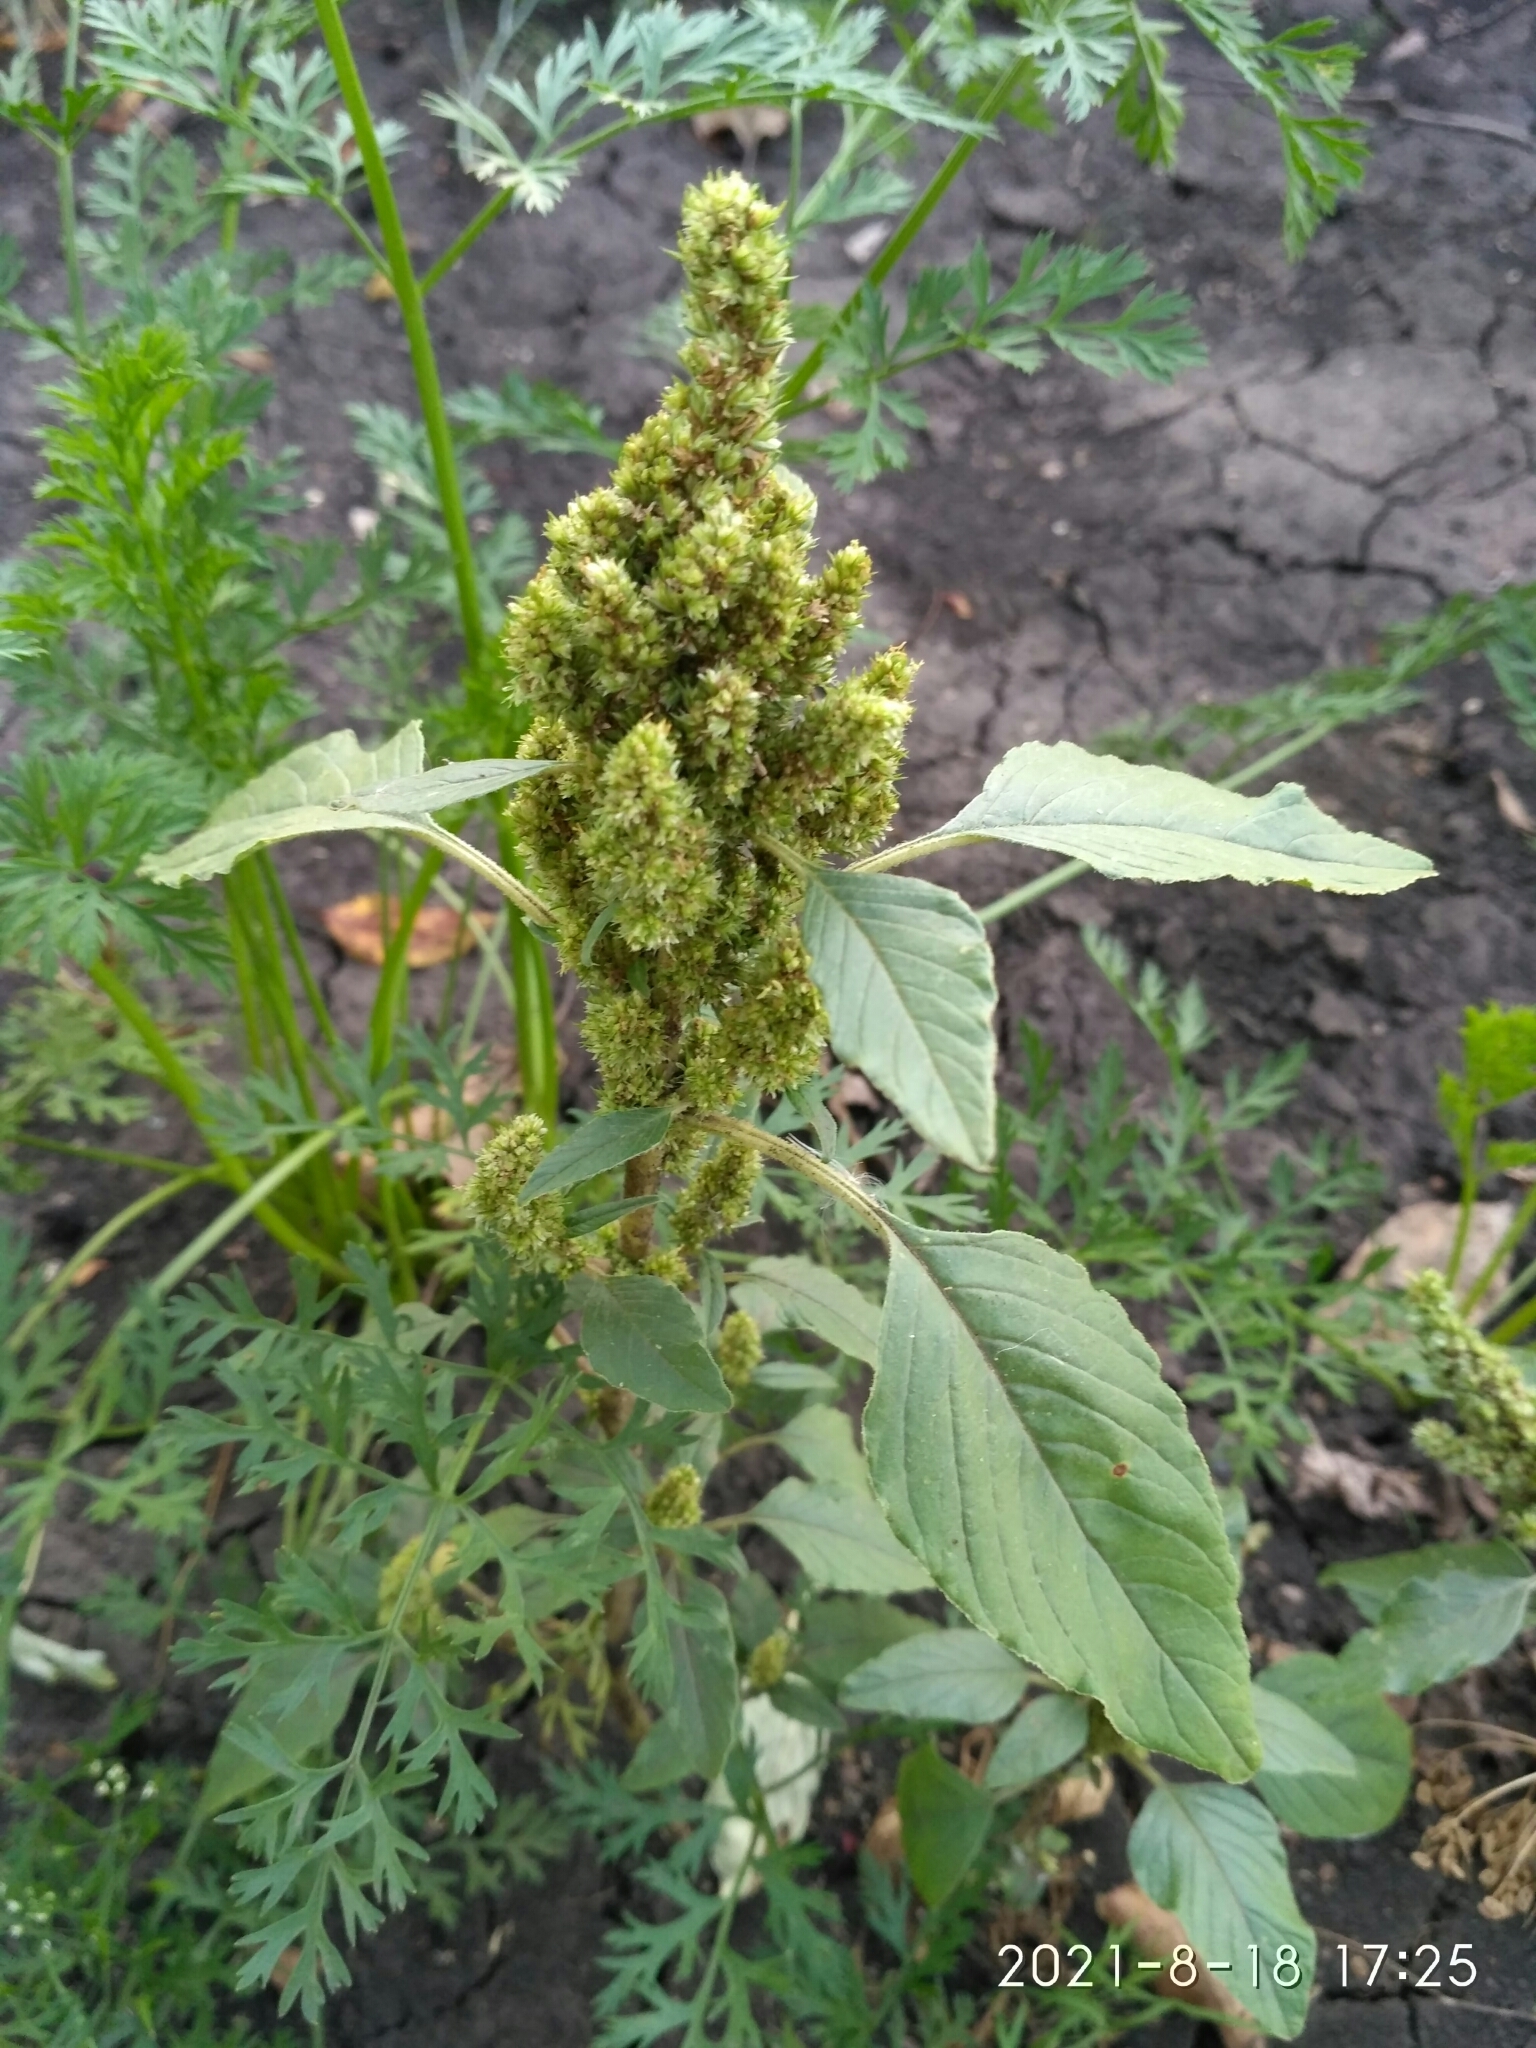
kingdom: Plantae
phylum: Tracheophyta
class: Magnoliopsida
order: Caryophyllales
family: Amaranthaceae
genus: Amaranthus
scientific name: Amaranthus retroflexus
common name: Redroot amaranth
